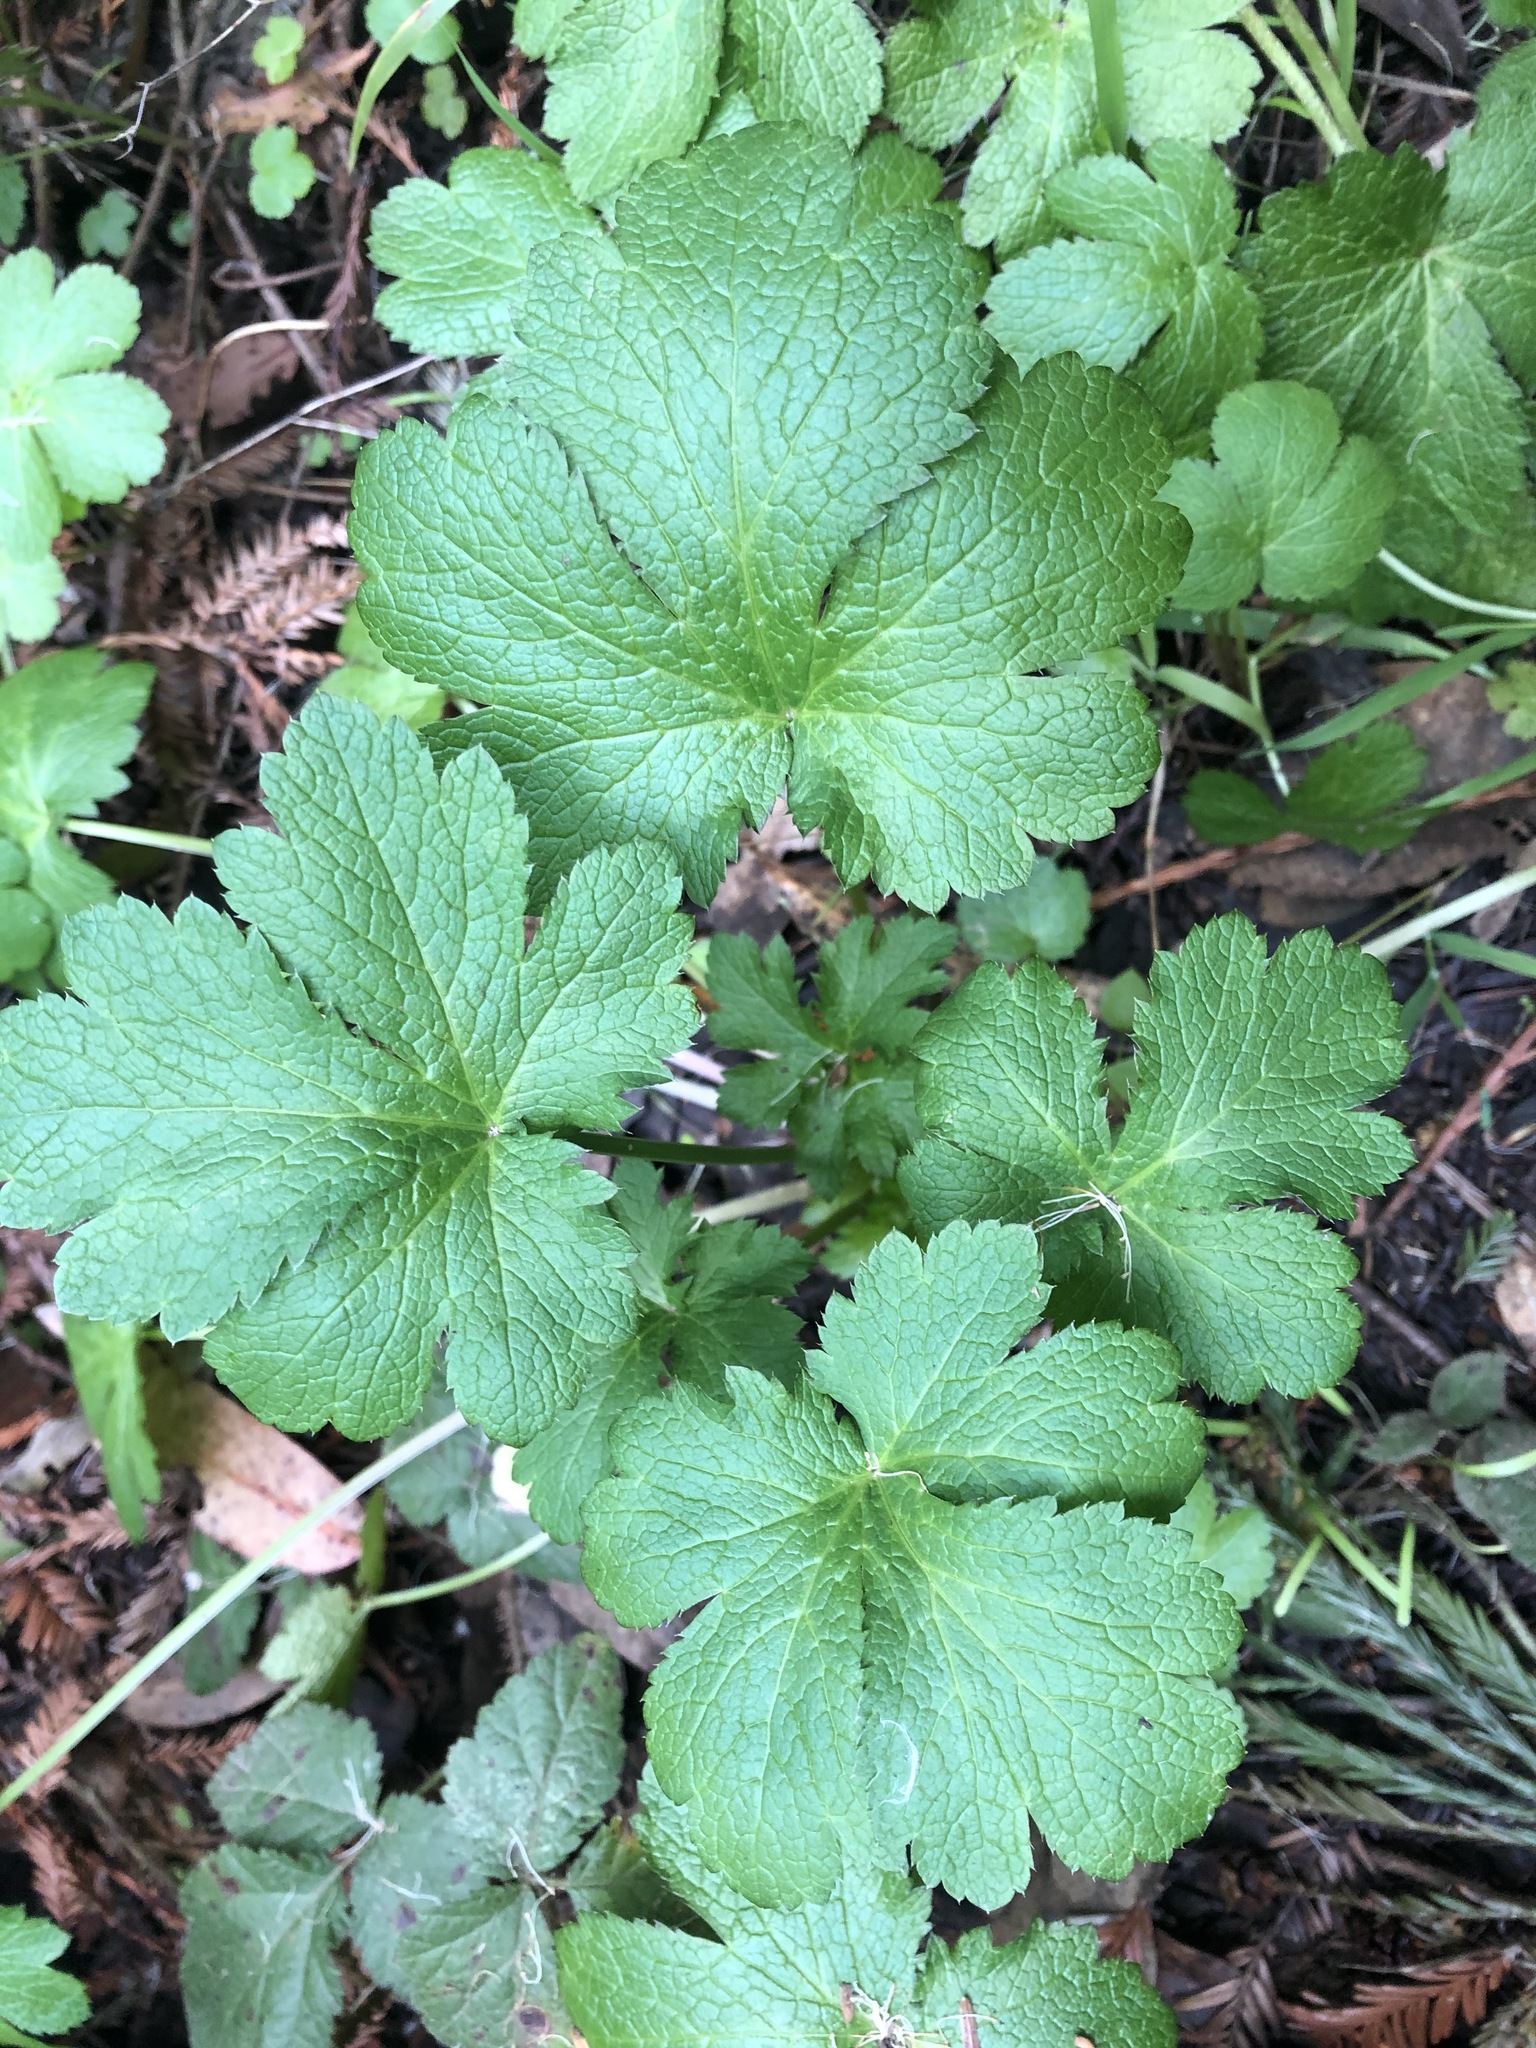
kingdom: Plantae
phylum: Tracheophyta
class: Magnoliopsida
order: Apiales
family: Apiaceae
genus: Sanicula
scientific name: Sanicula crassicaulis
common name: Western snakeroot
